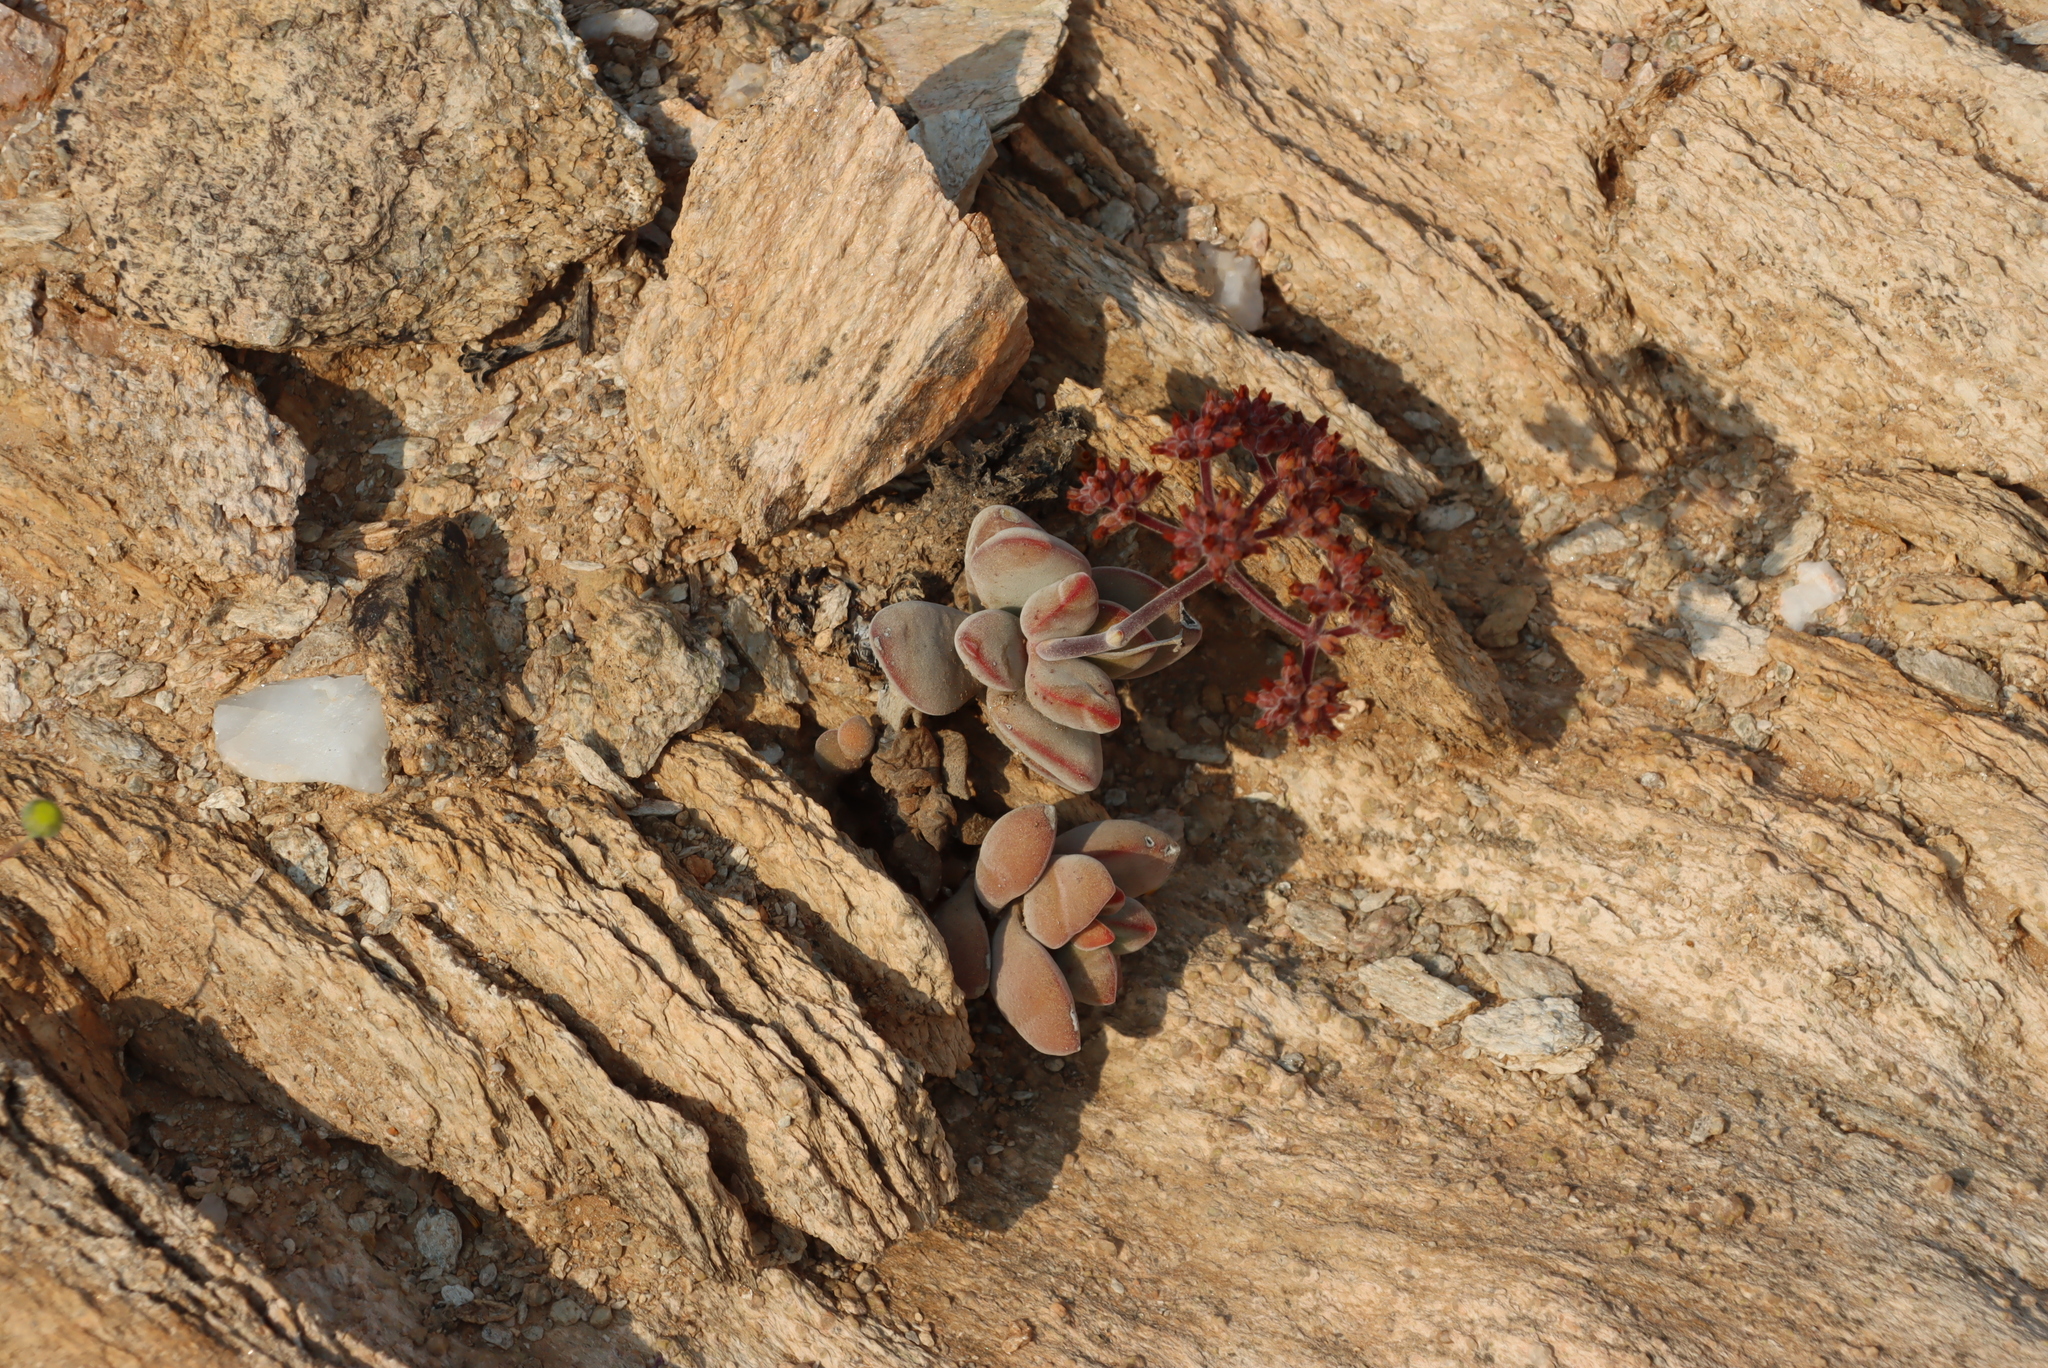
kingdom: Plantae
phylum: Tracheophyta
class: Magnoliopsida
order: Saxifragales
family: Crassulaceae
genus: Crassula
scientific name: Crassula sericea
